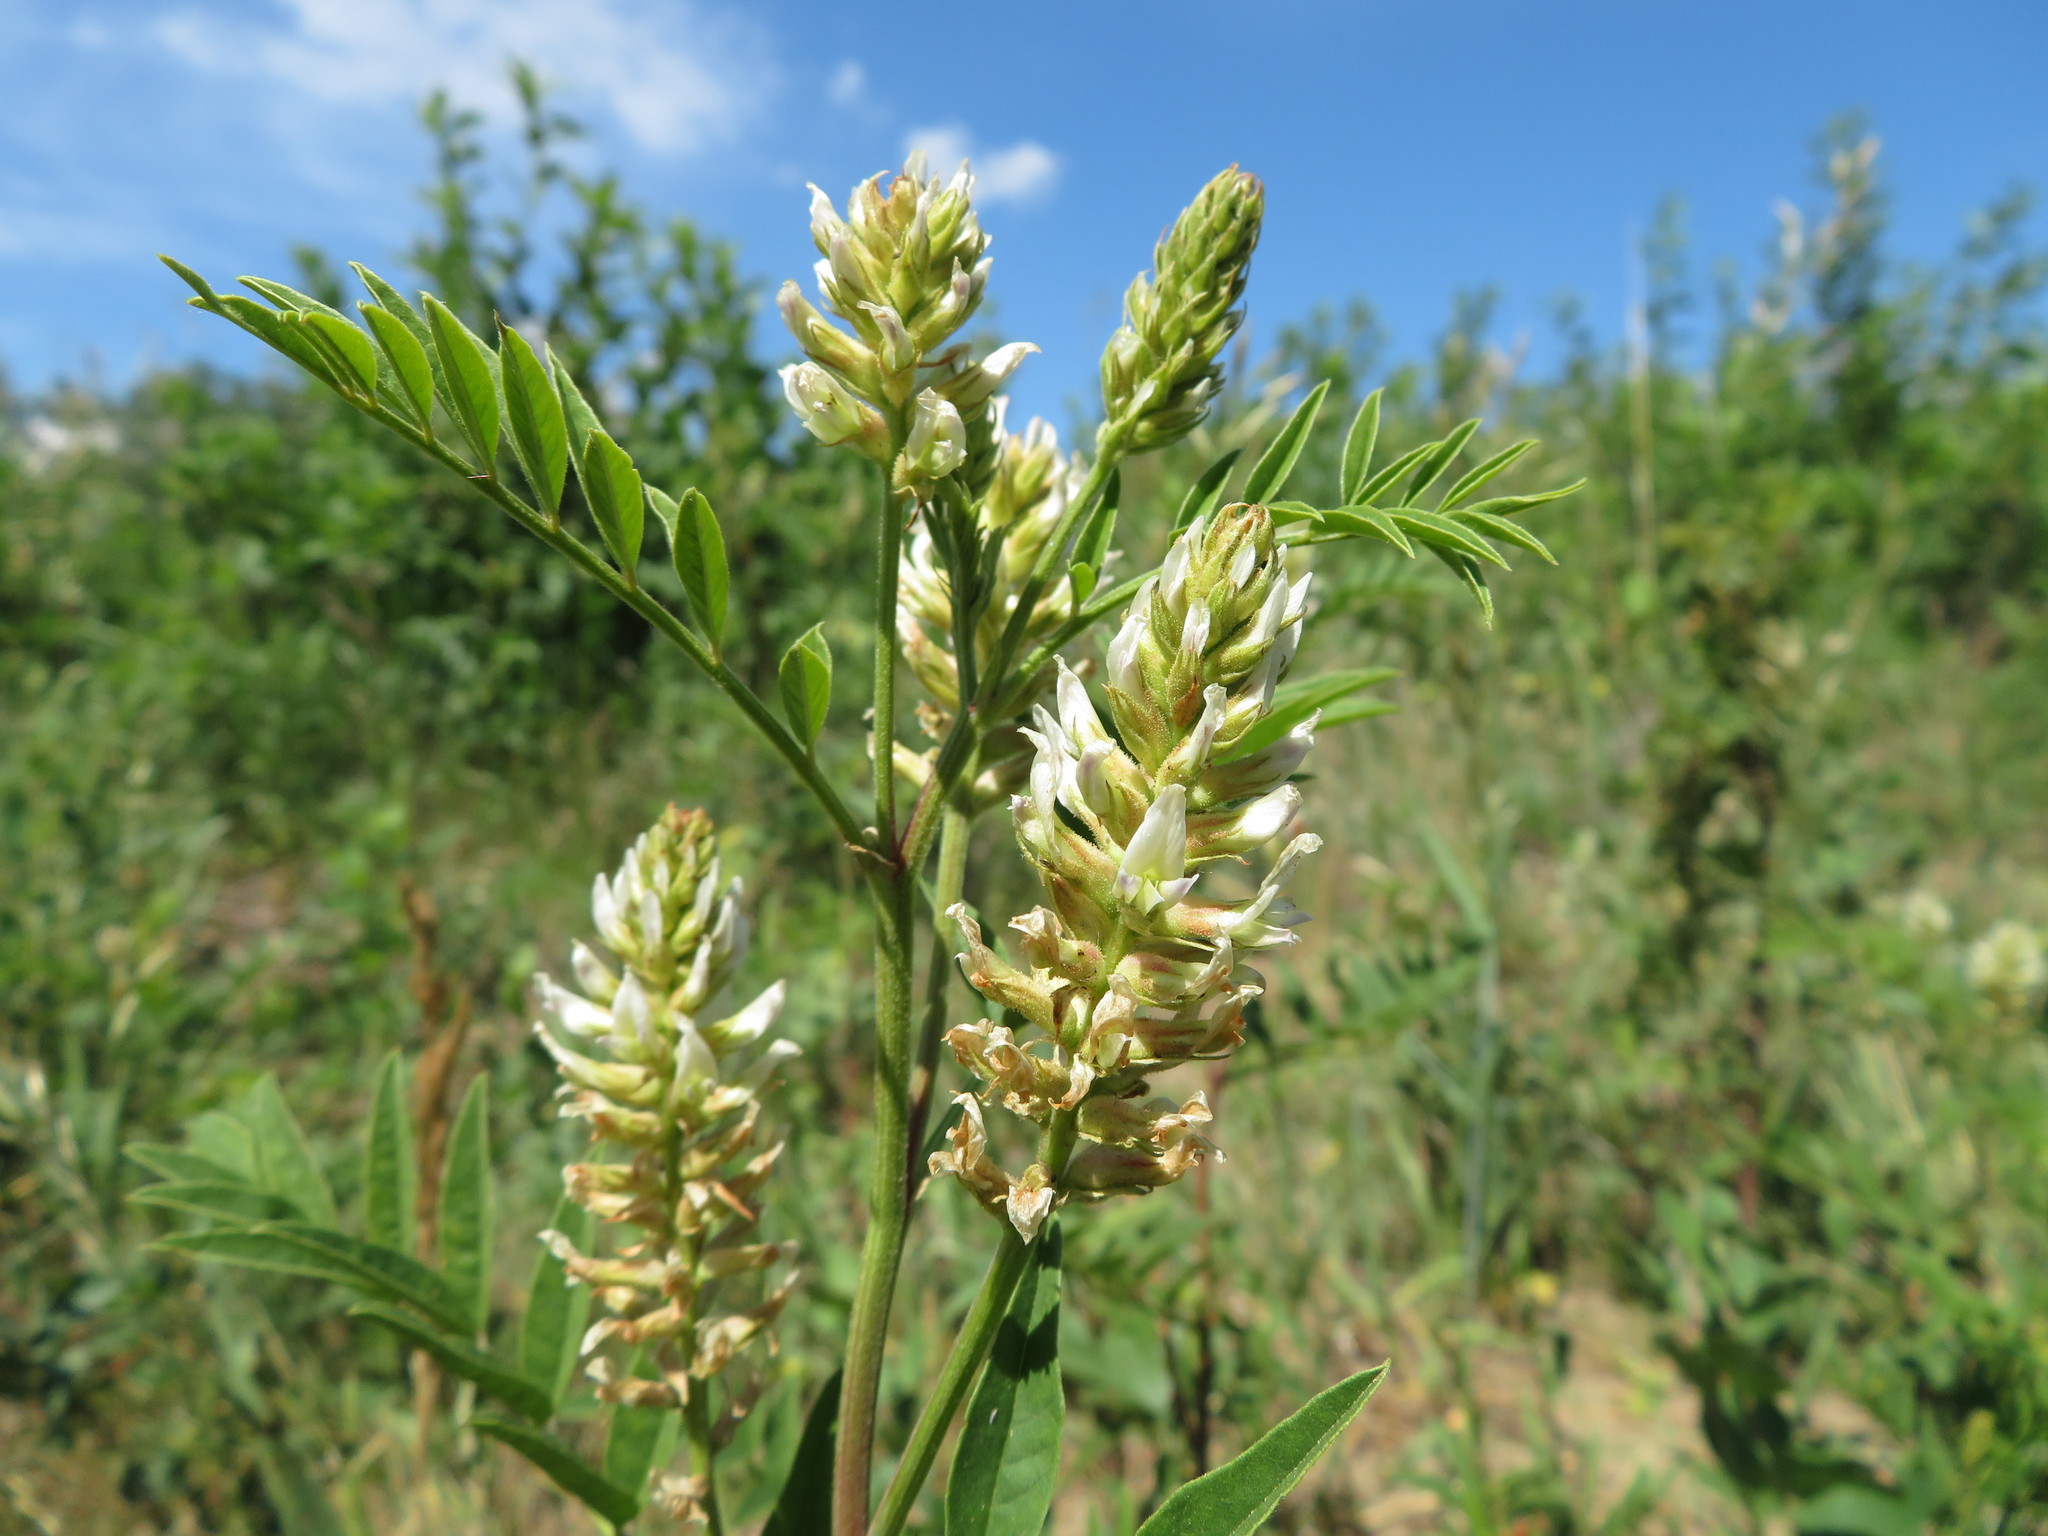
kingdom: Plantae
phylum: Tracheophyta
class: Magnoliopsida
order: Fabales
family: Fabaceae
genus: Glycyrrhiza
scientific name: Glycyrrhiza lepidota
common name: American liquorice
